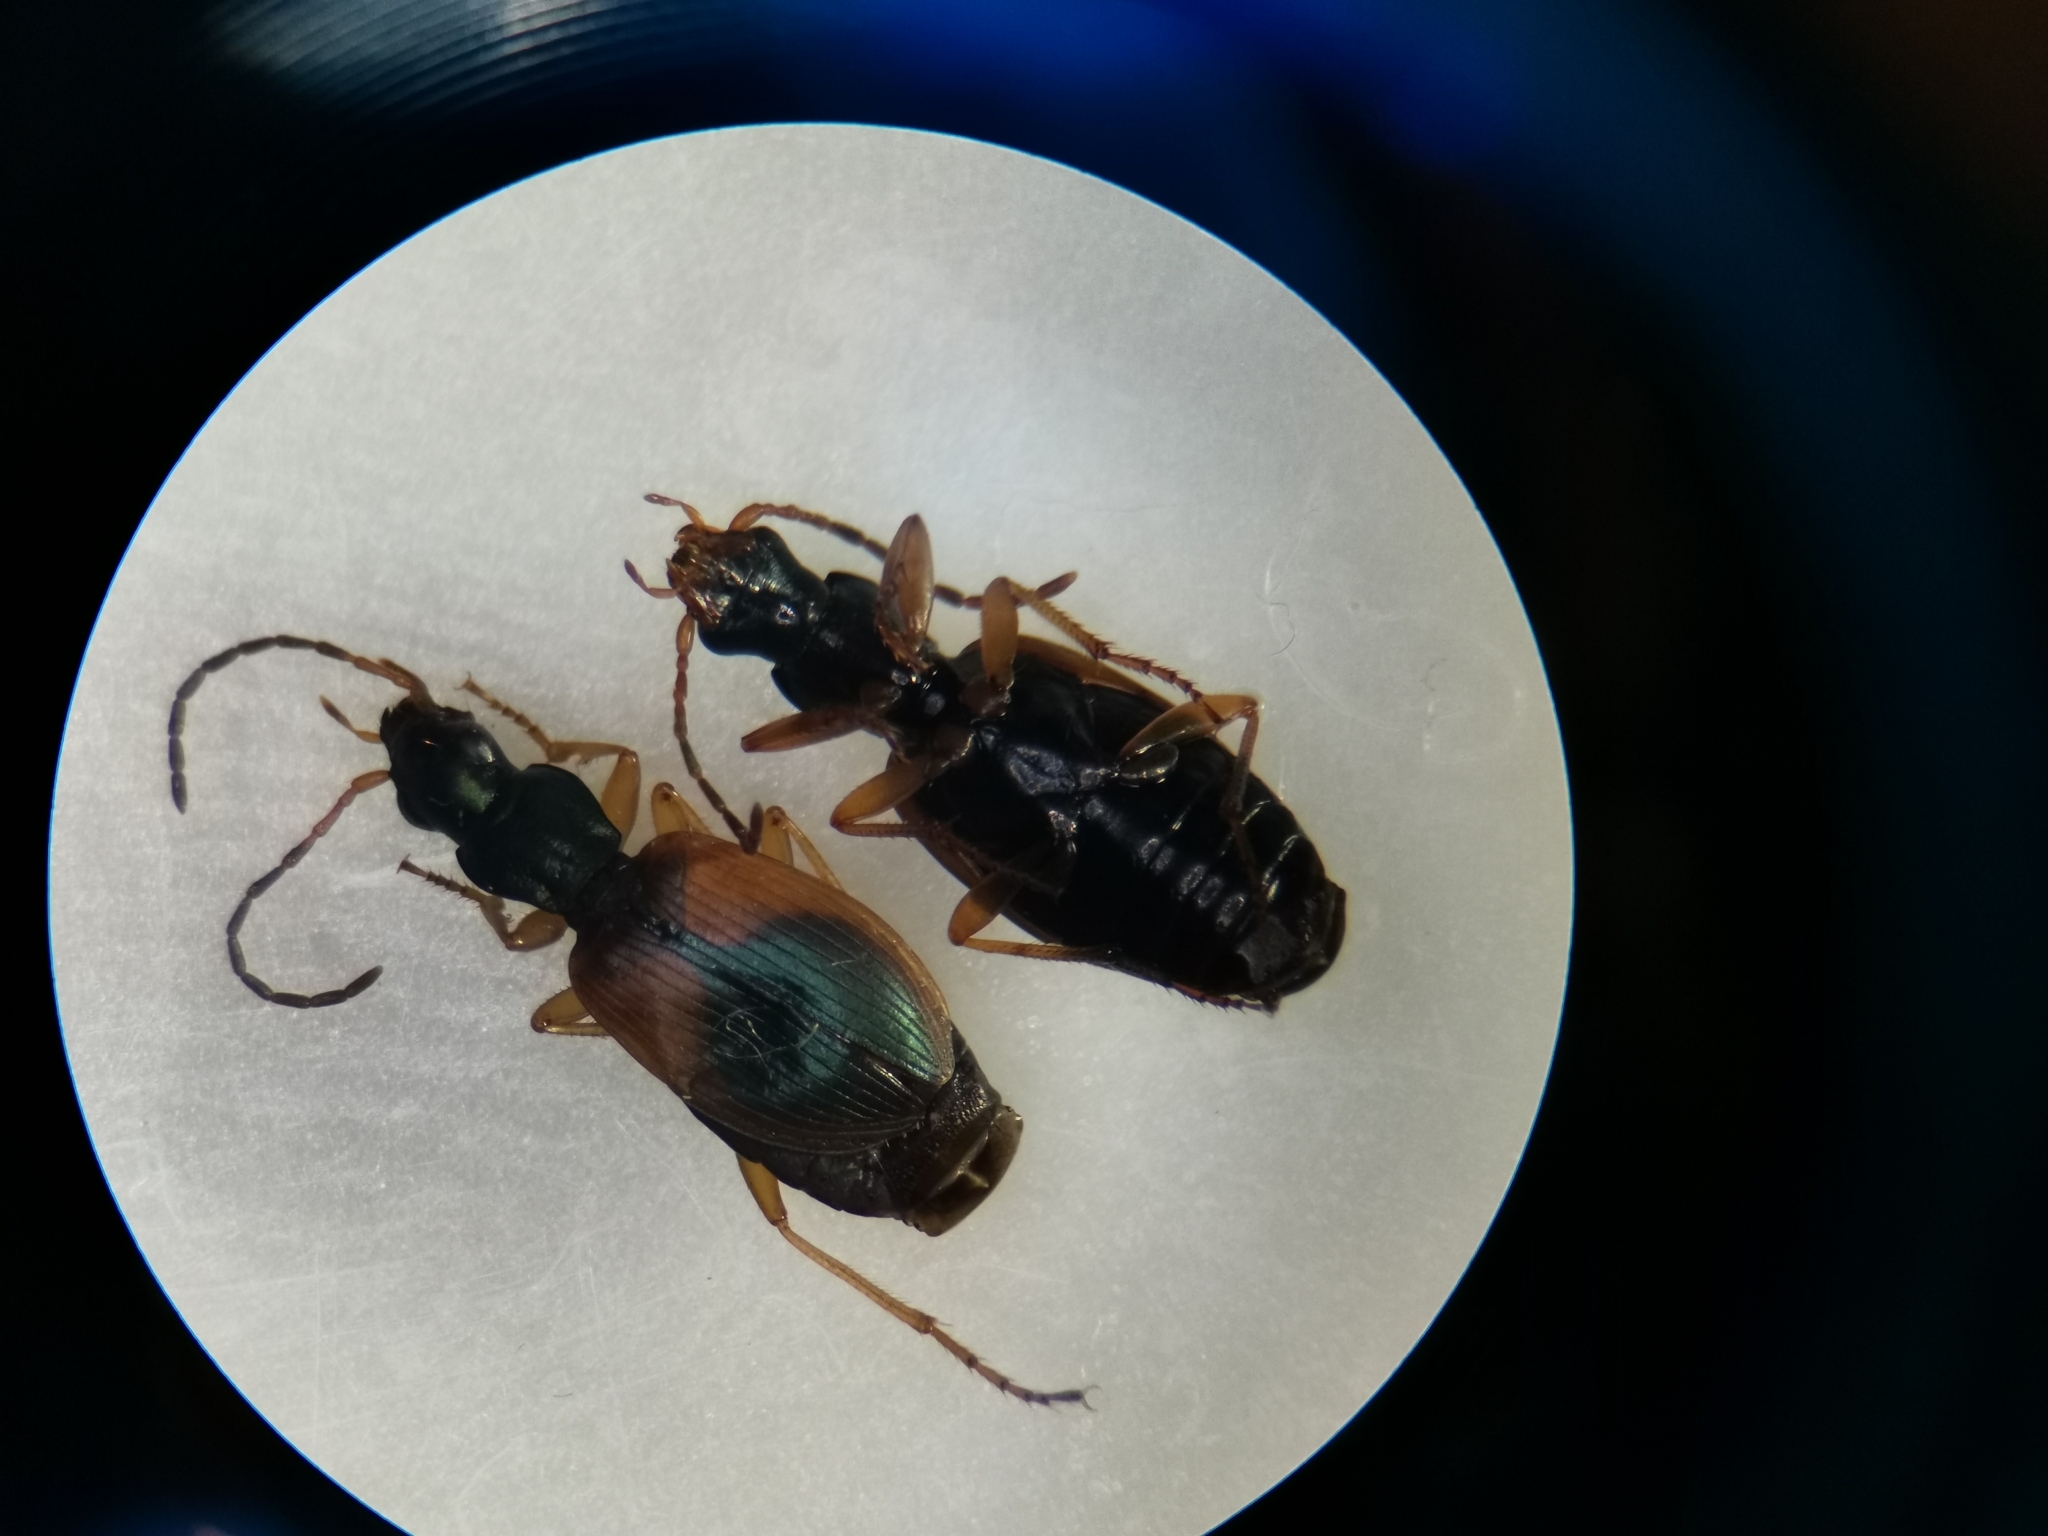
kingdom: Animalia
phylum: Arthropoda
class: Insecta
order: Coleoptera
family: Carabidae
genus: Anchomenus
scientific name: Anchomenus dorsalis
